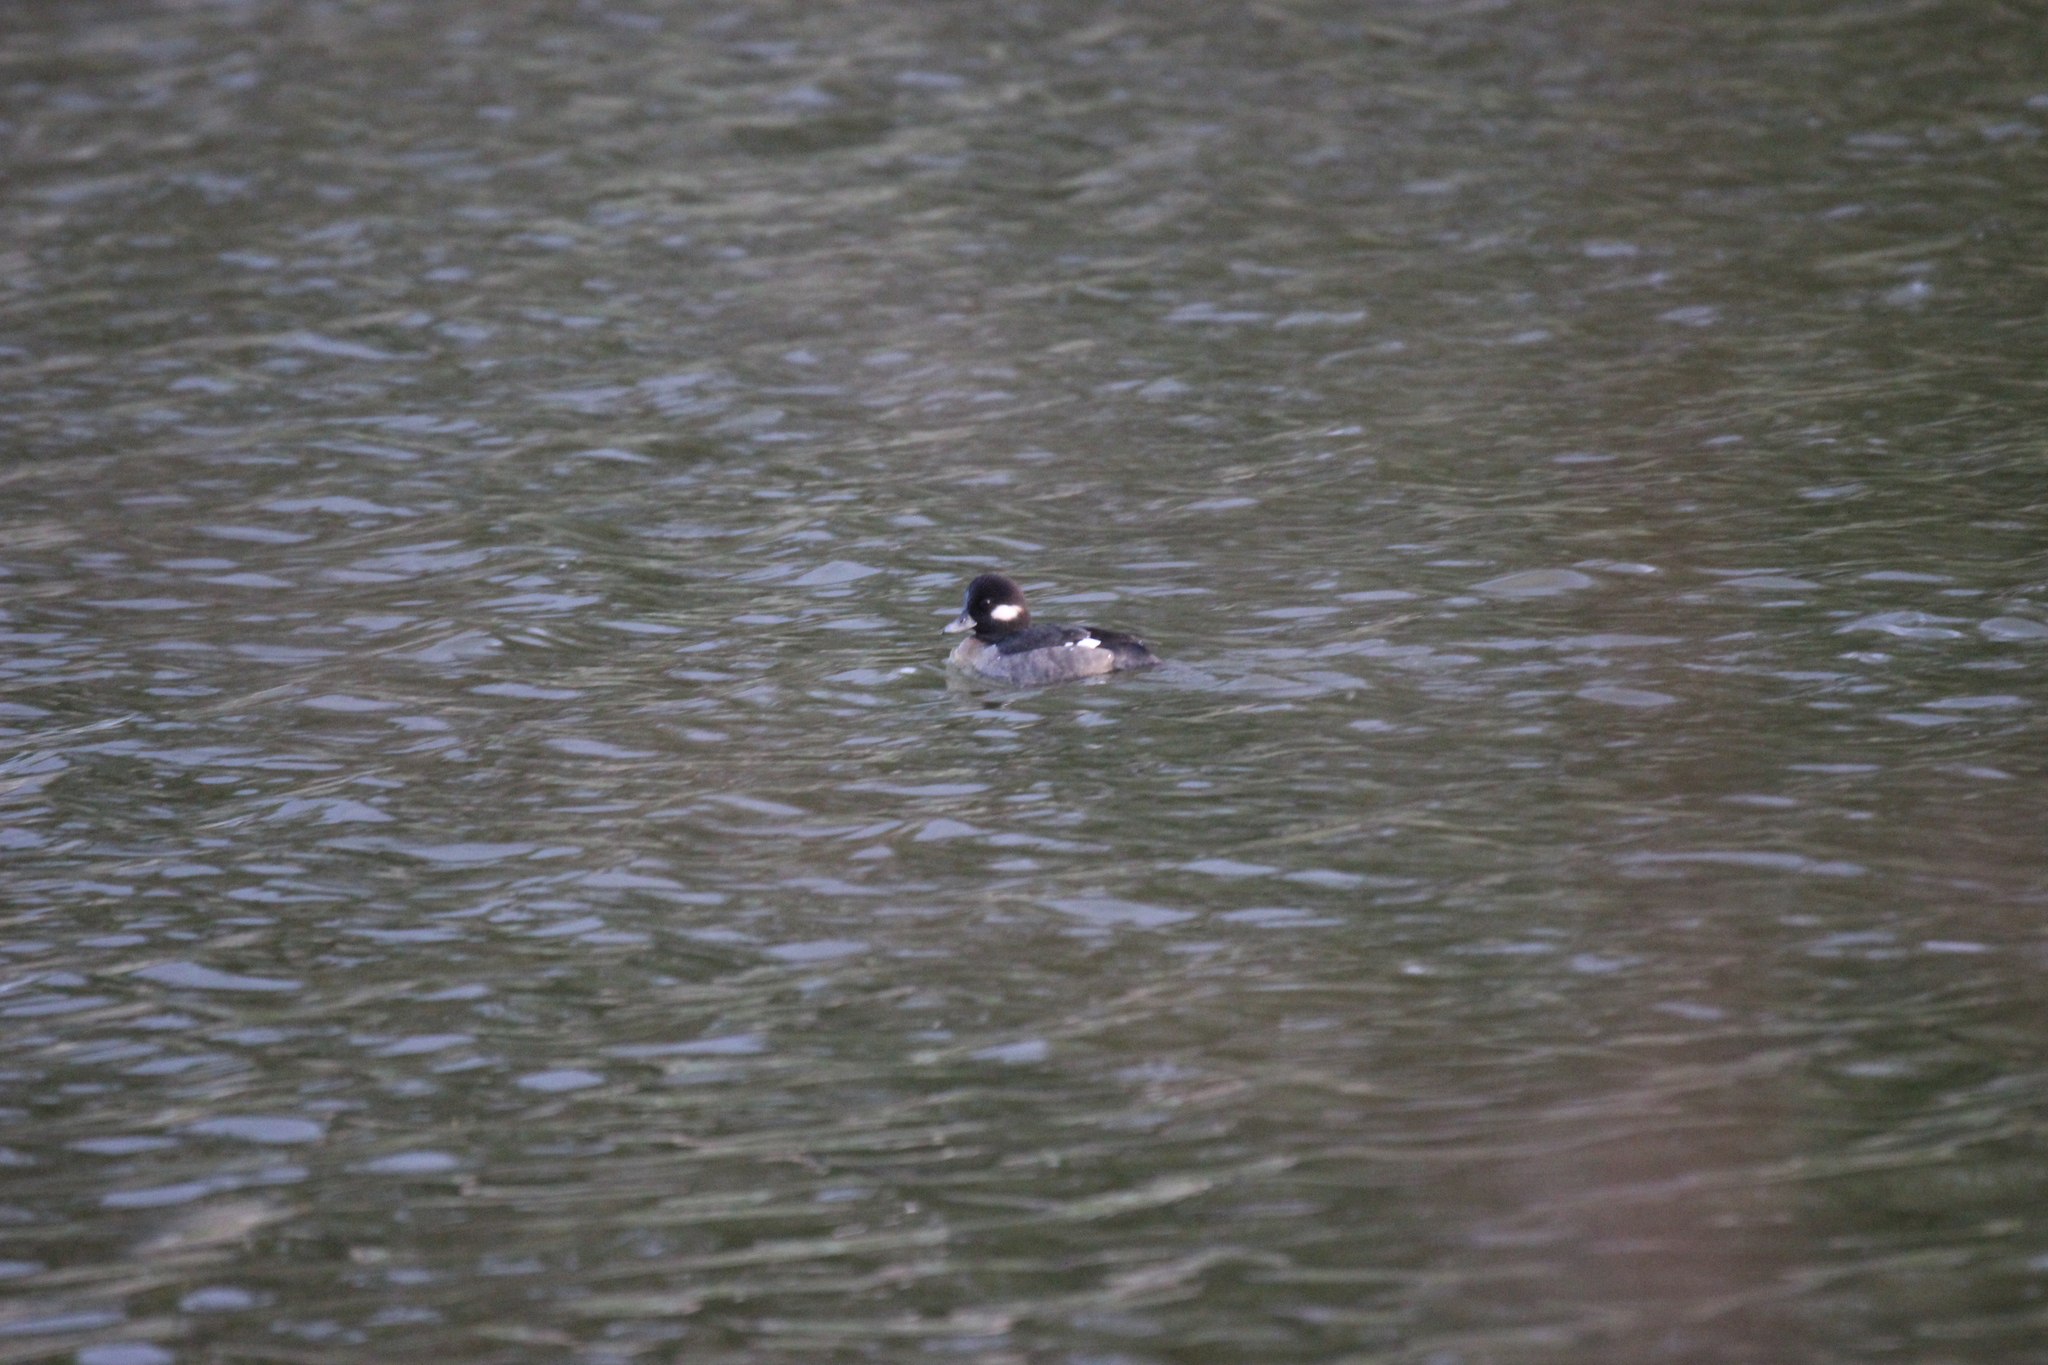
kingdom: Animalia
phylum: Chordata
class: Aves
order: Anseriformes
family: Anatidae
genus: Bucephala
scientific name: Bucephala albeola
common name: Bufflehead
